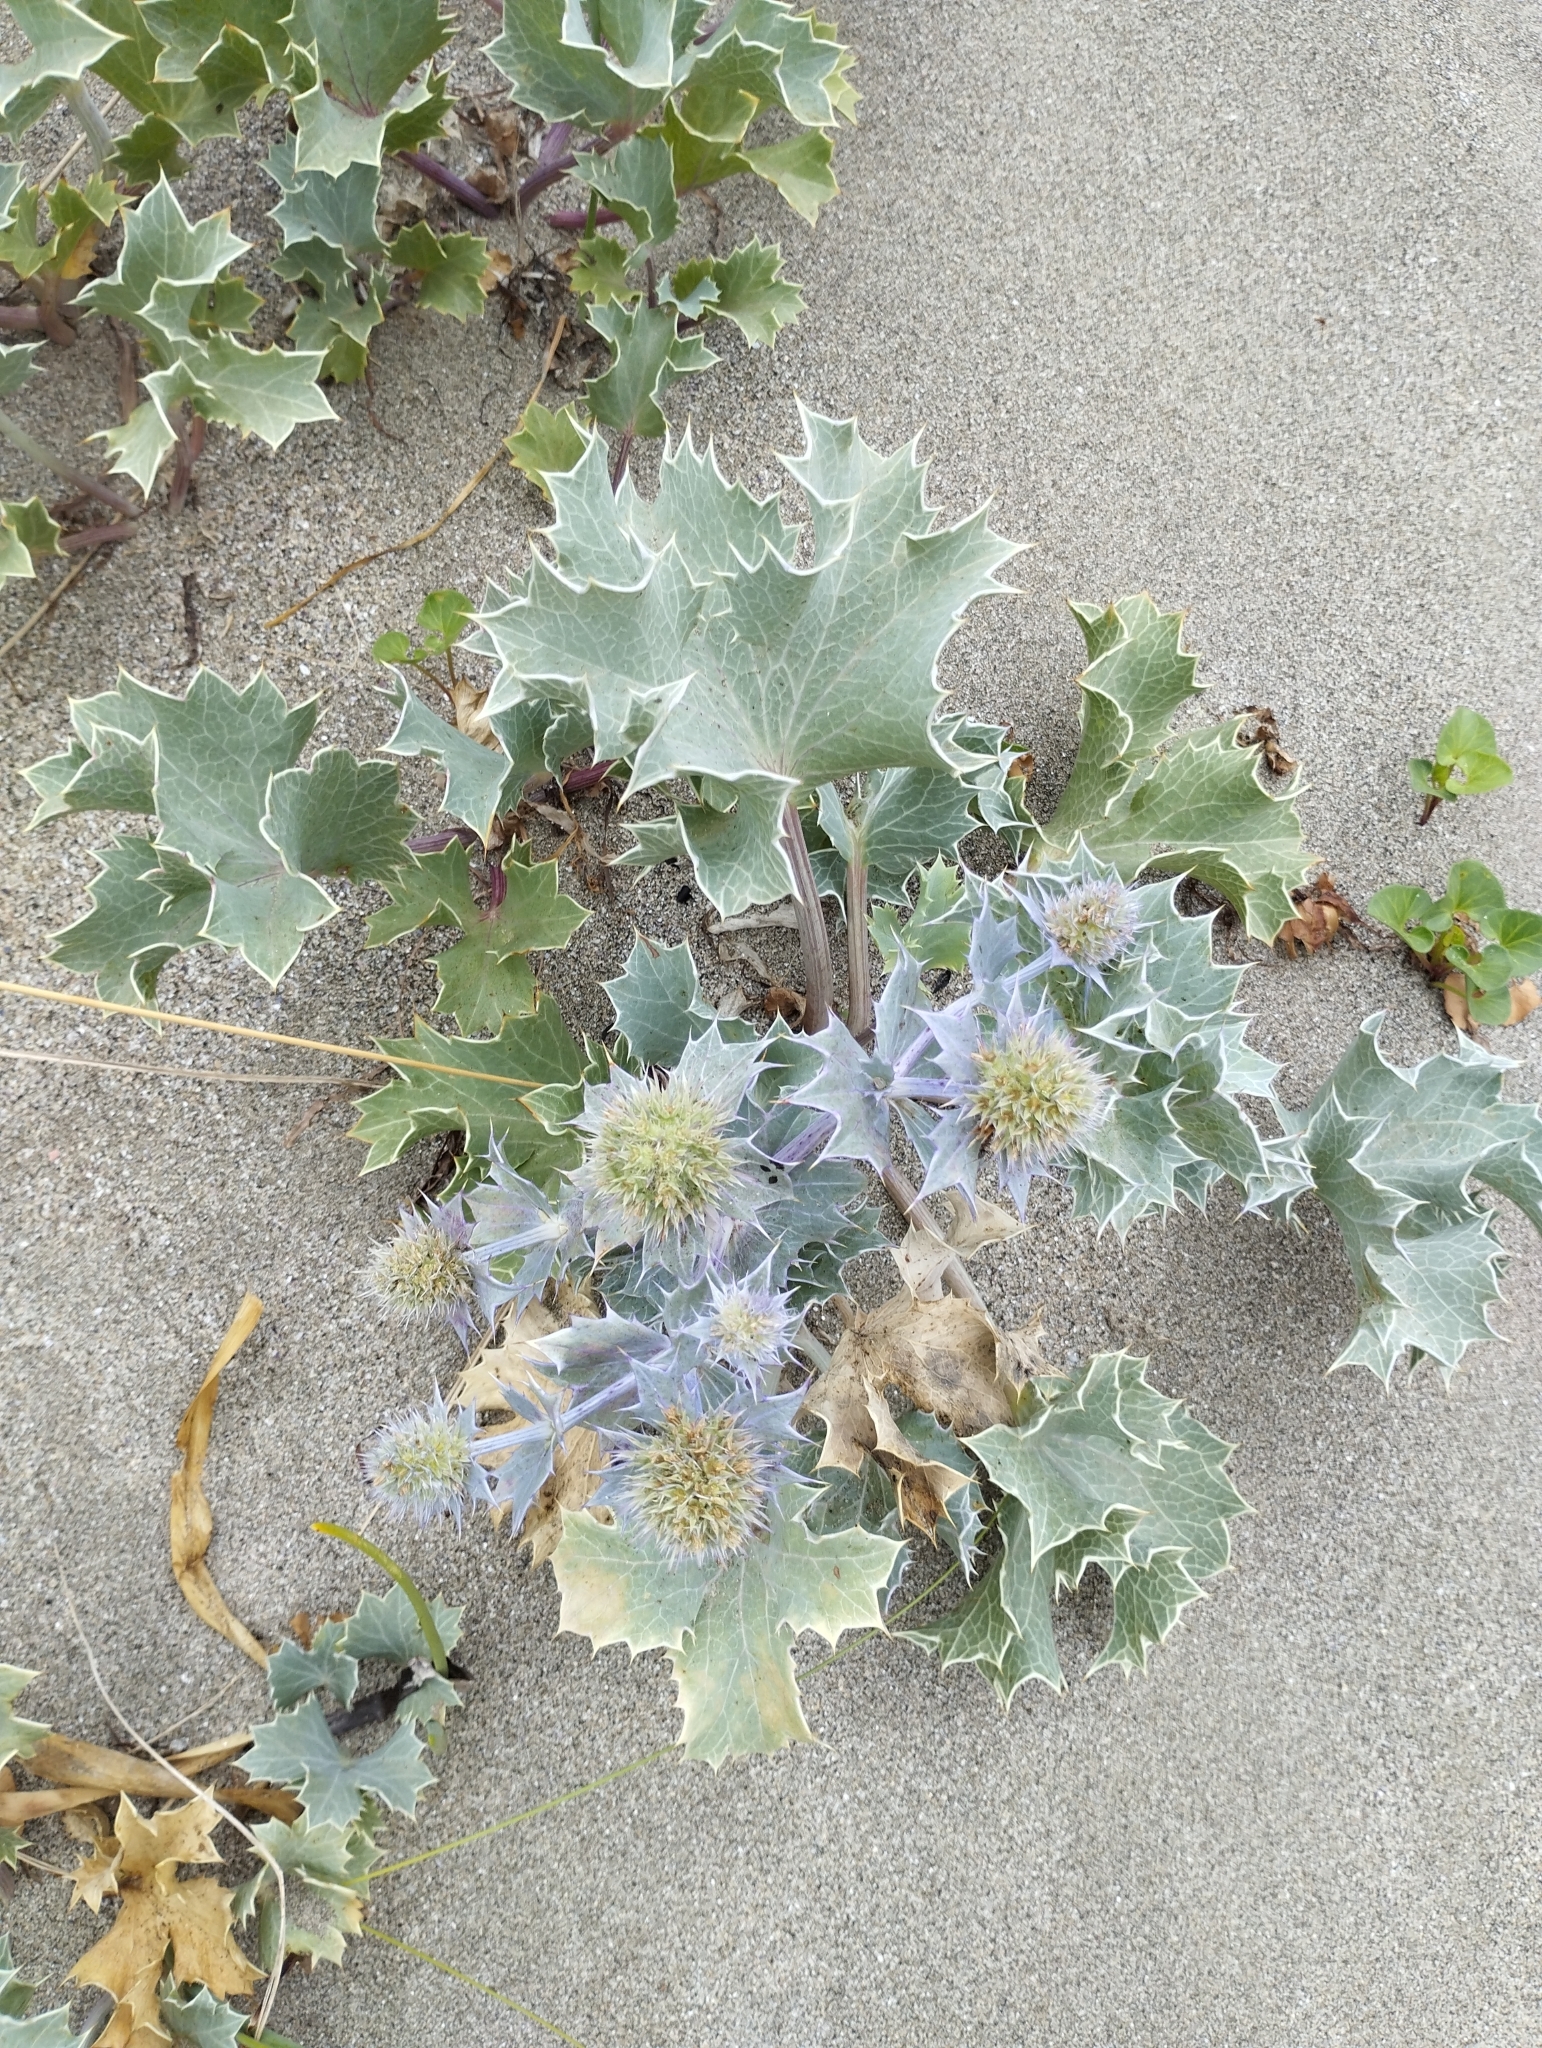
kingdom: Plantae
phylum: Tracheophyta
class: Magnoliopsida
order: Apiales
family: Apiaceae
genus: Eryngium
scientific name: Eryngium maritimum
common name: Sea-holly
